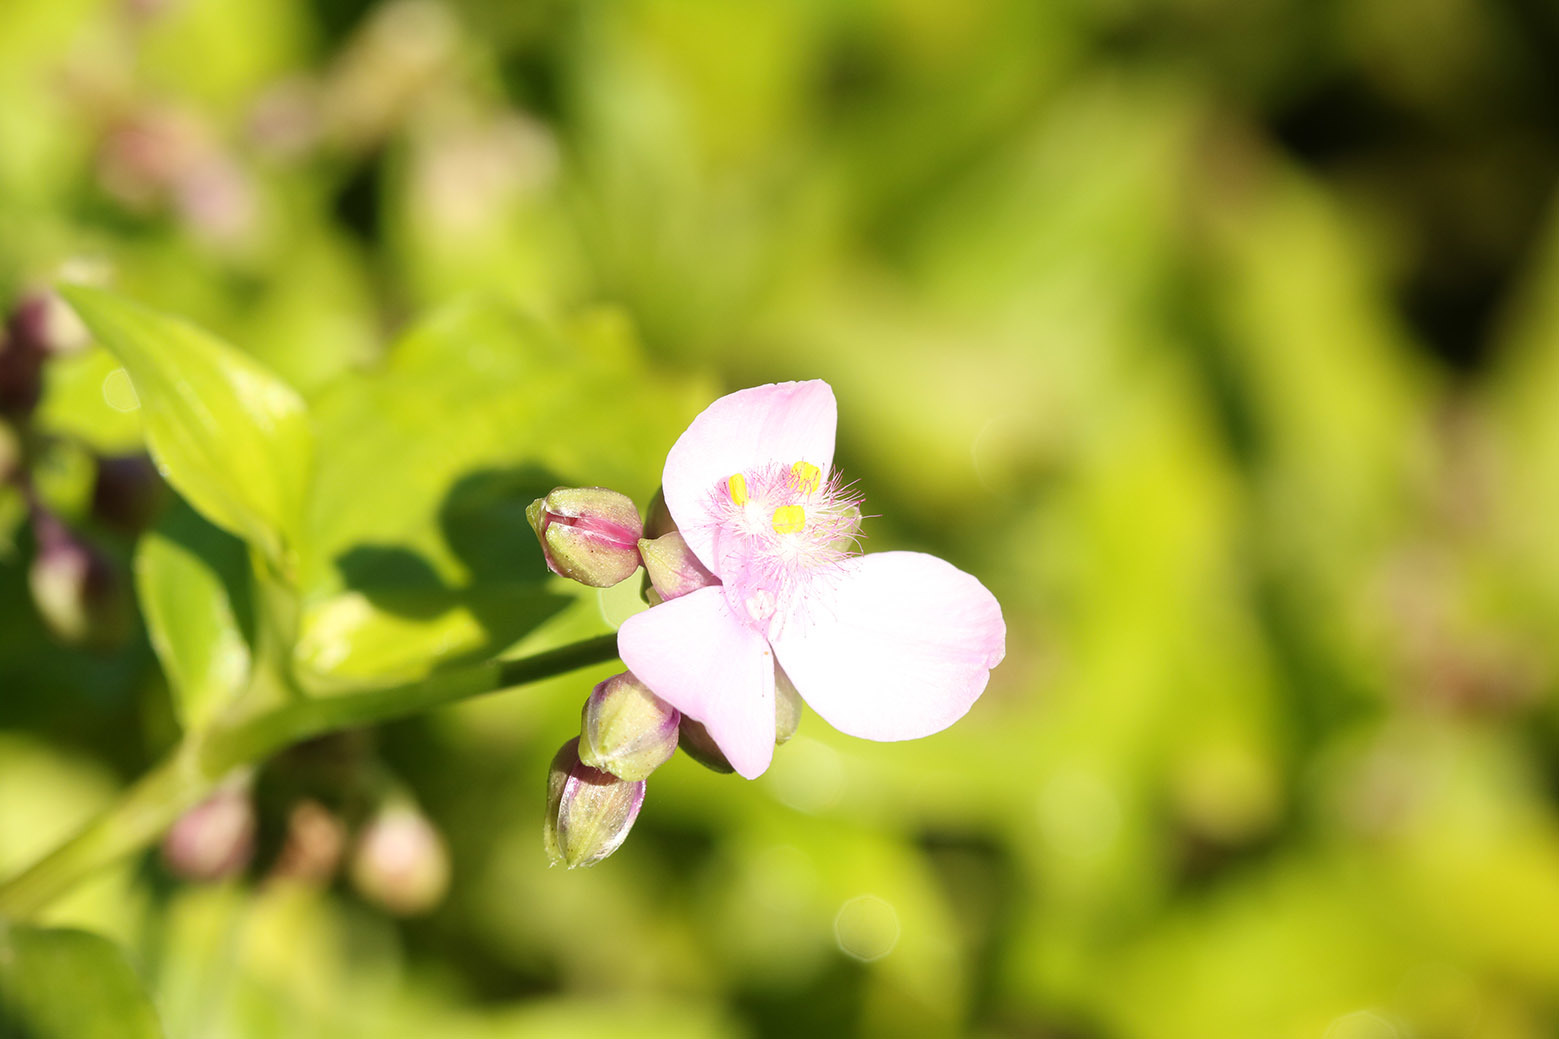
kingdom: Plantae
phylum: Tracheophyta
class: Liliopsida
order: Commelinales
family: Commelinaceae
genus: Callisia
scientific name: Callisia diuretica
